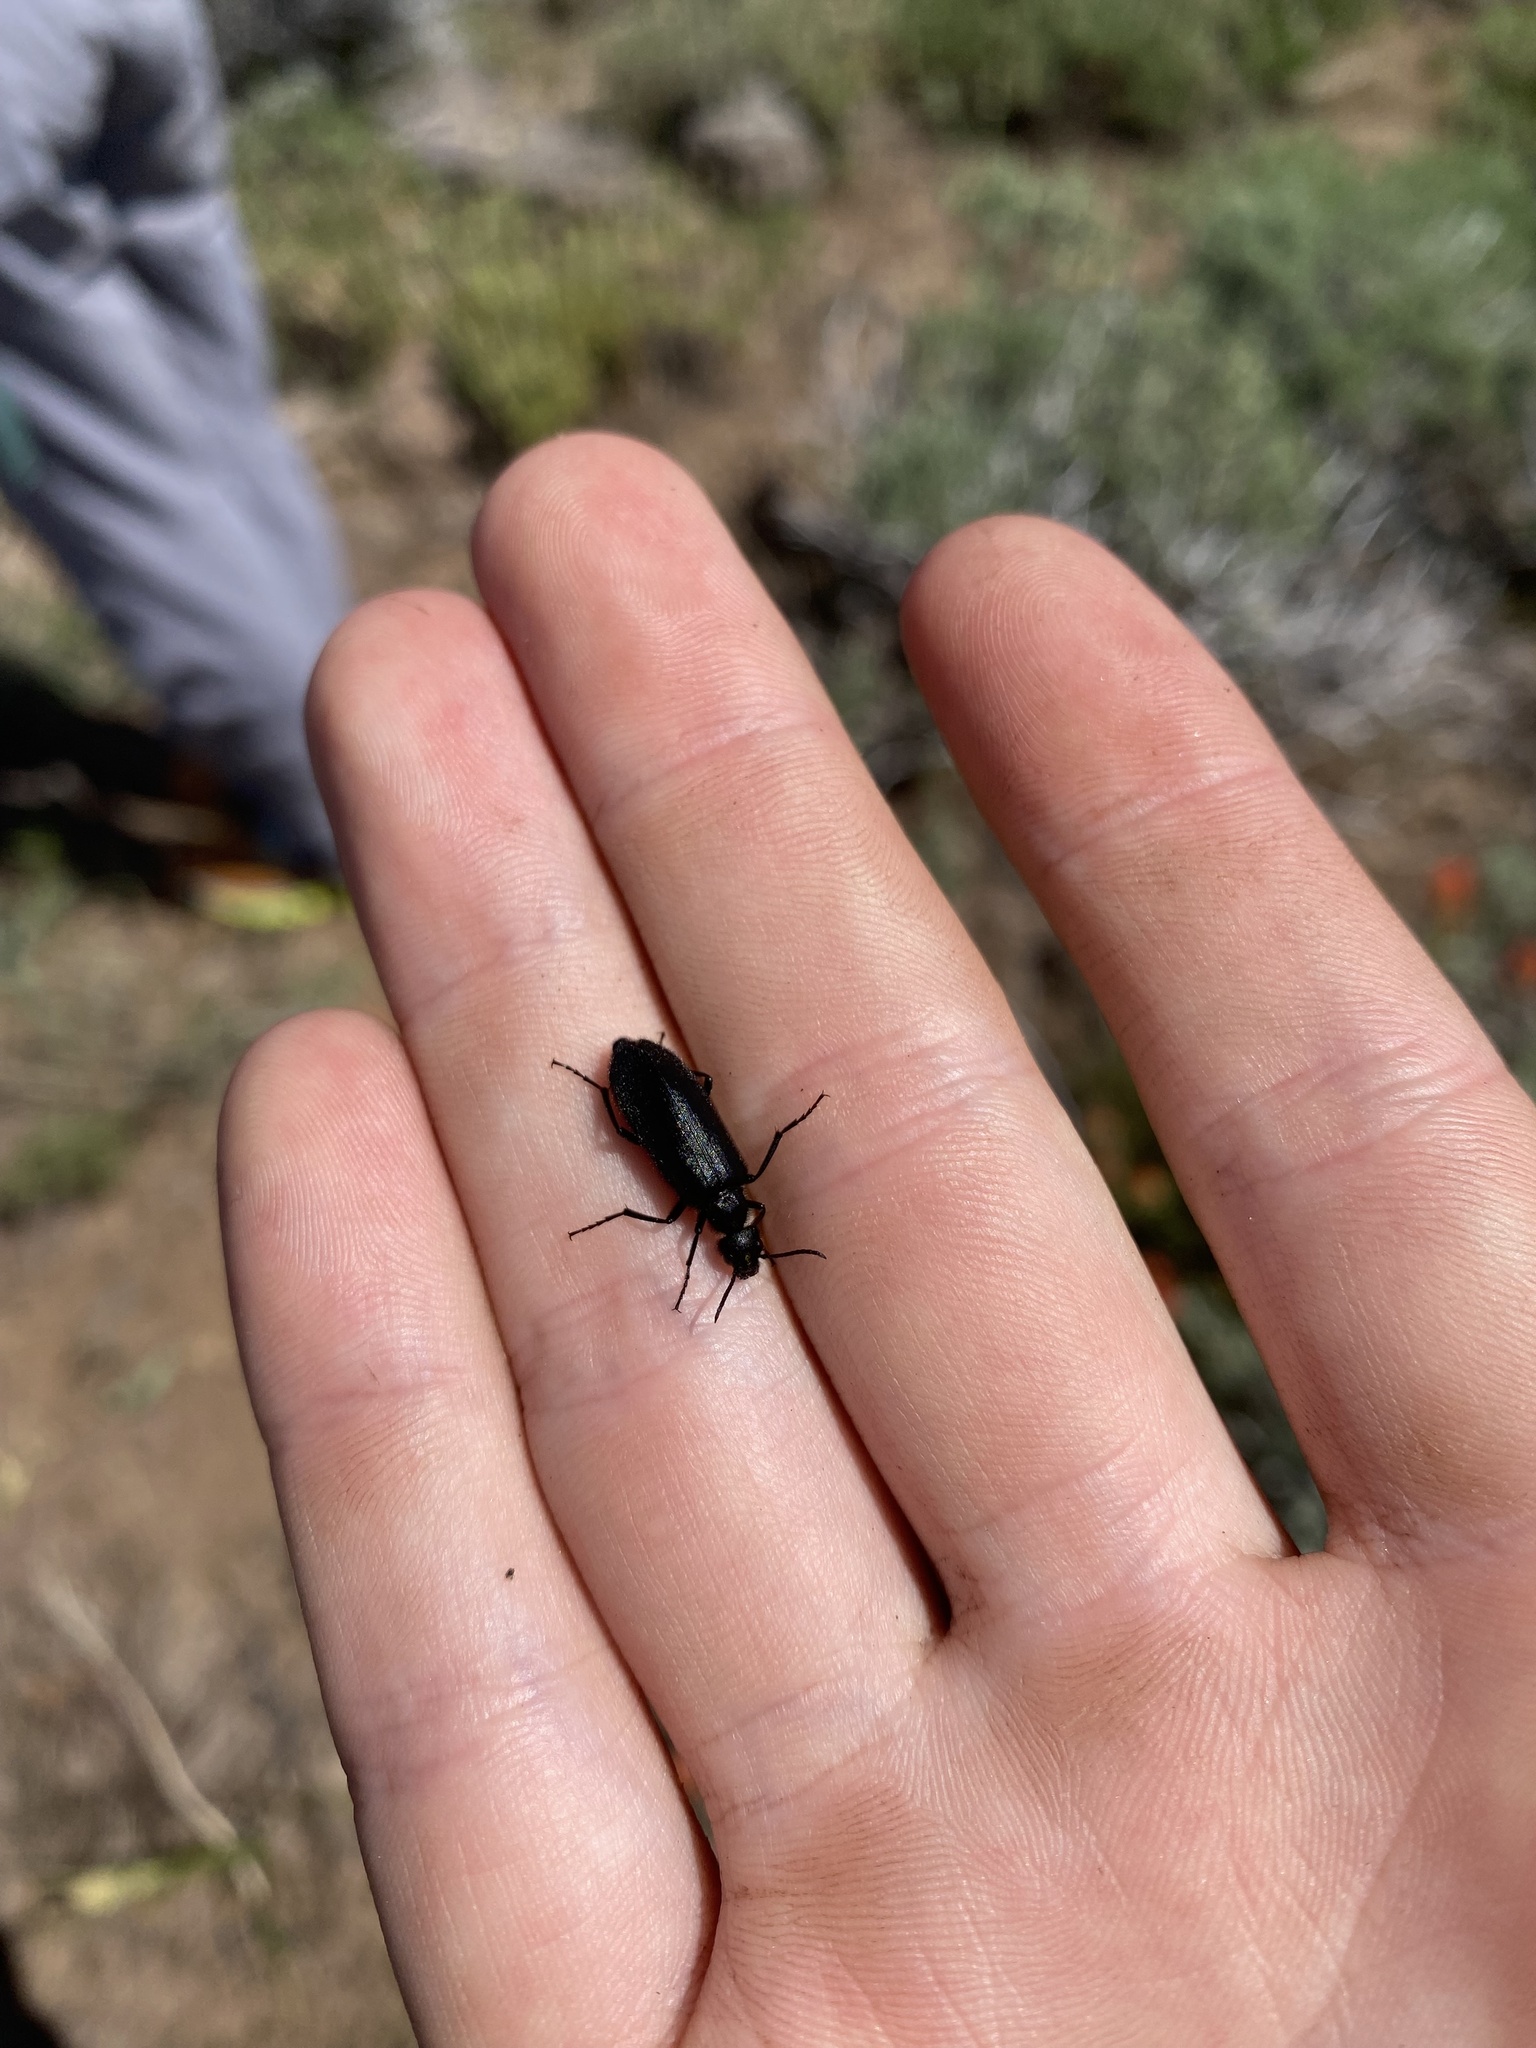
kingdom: Animalia
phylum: Arthropoda
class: Insecta
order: Coleoptera
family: Meloidae
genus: Epicauta
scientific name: Epicauta puncticollis
